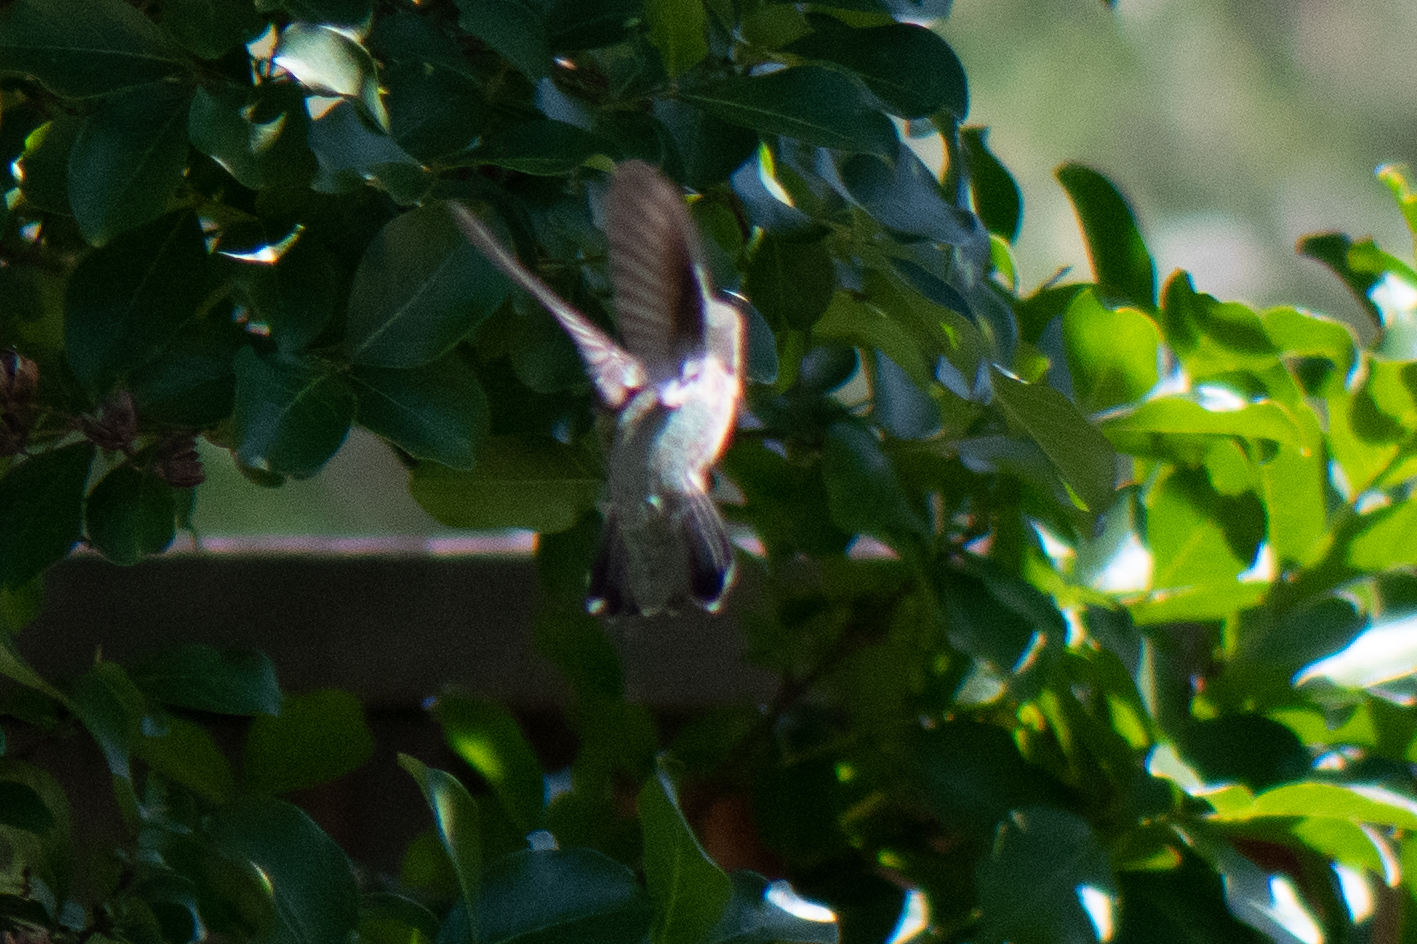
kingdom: Animalia
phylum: Chordata
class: Aves
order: Apodiformes
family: Trochilidae
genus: Calypte
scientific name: Calypte anna
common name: Anna's hummingbird
